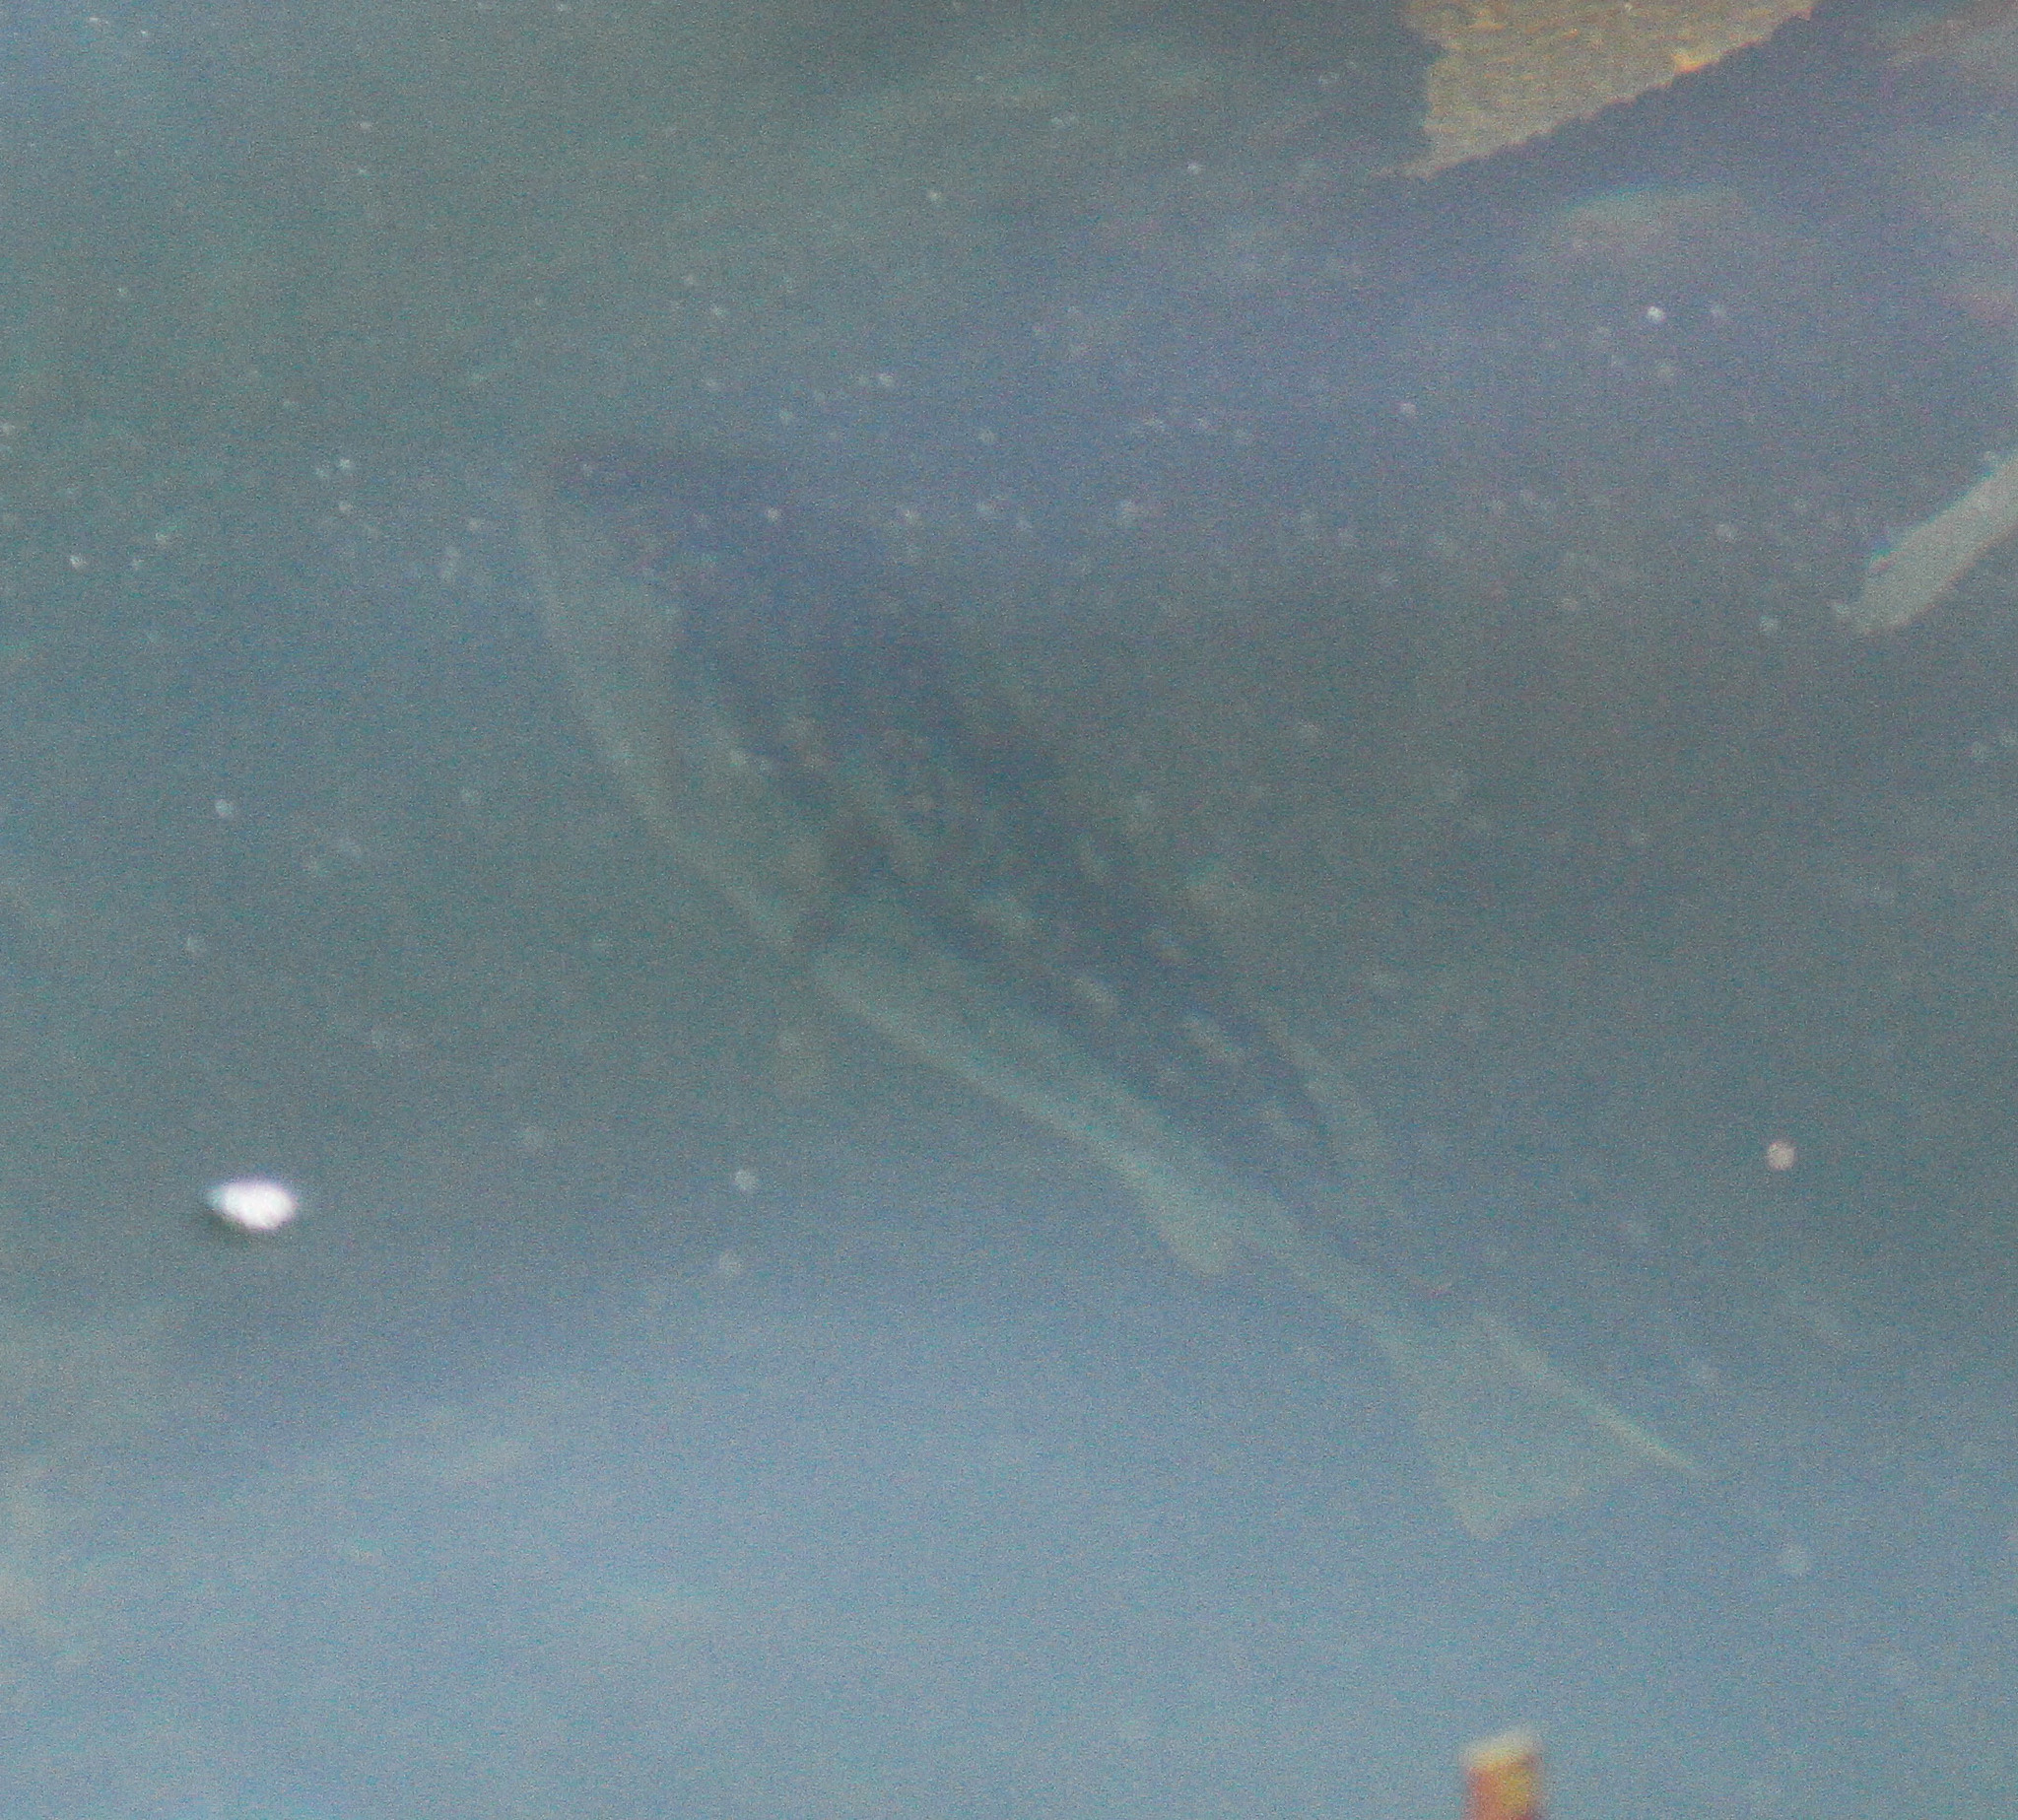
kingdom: Animalia
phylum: Chordata
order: Perciformes
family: Serranidae
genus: Paralabrax
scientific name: Paralabrax clathratus
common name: Kelp bass
